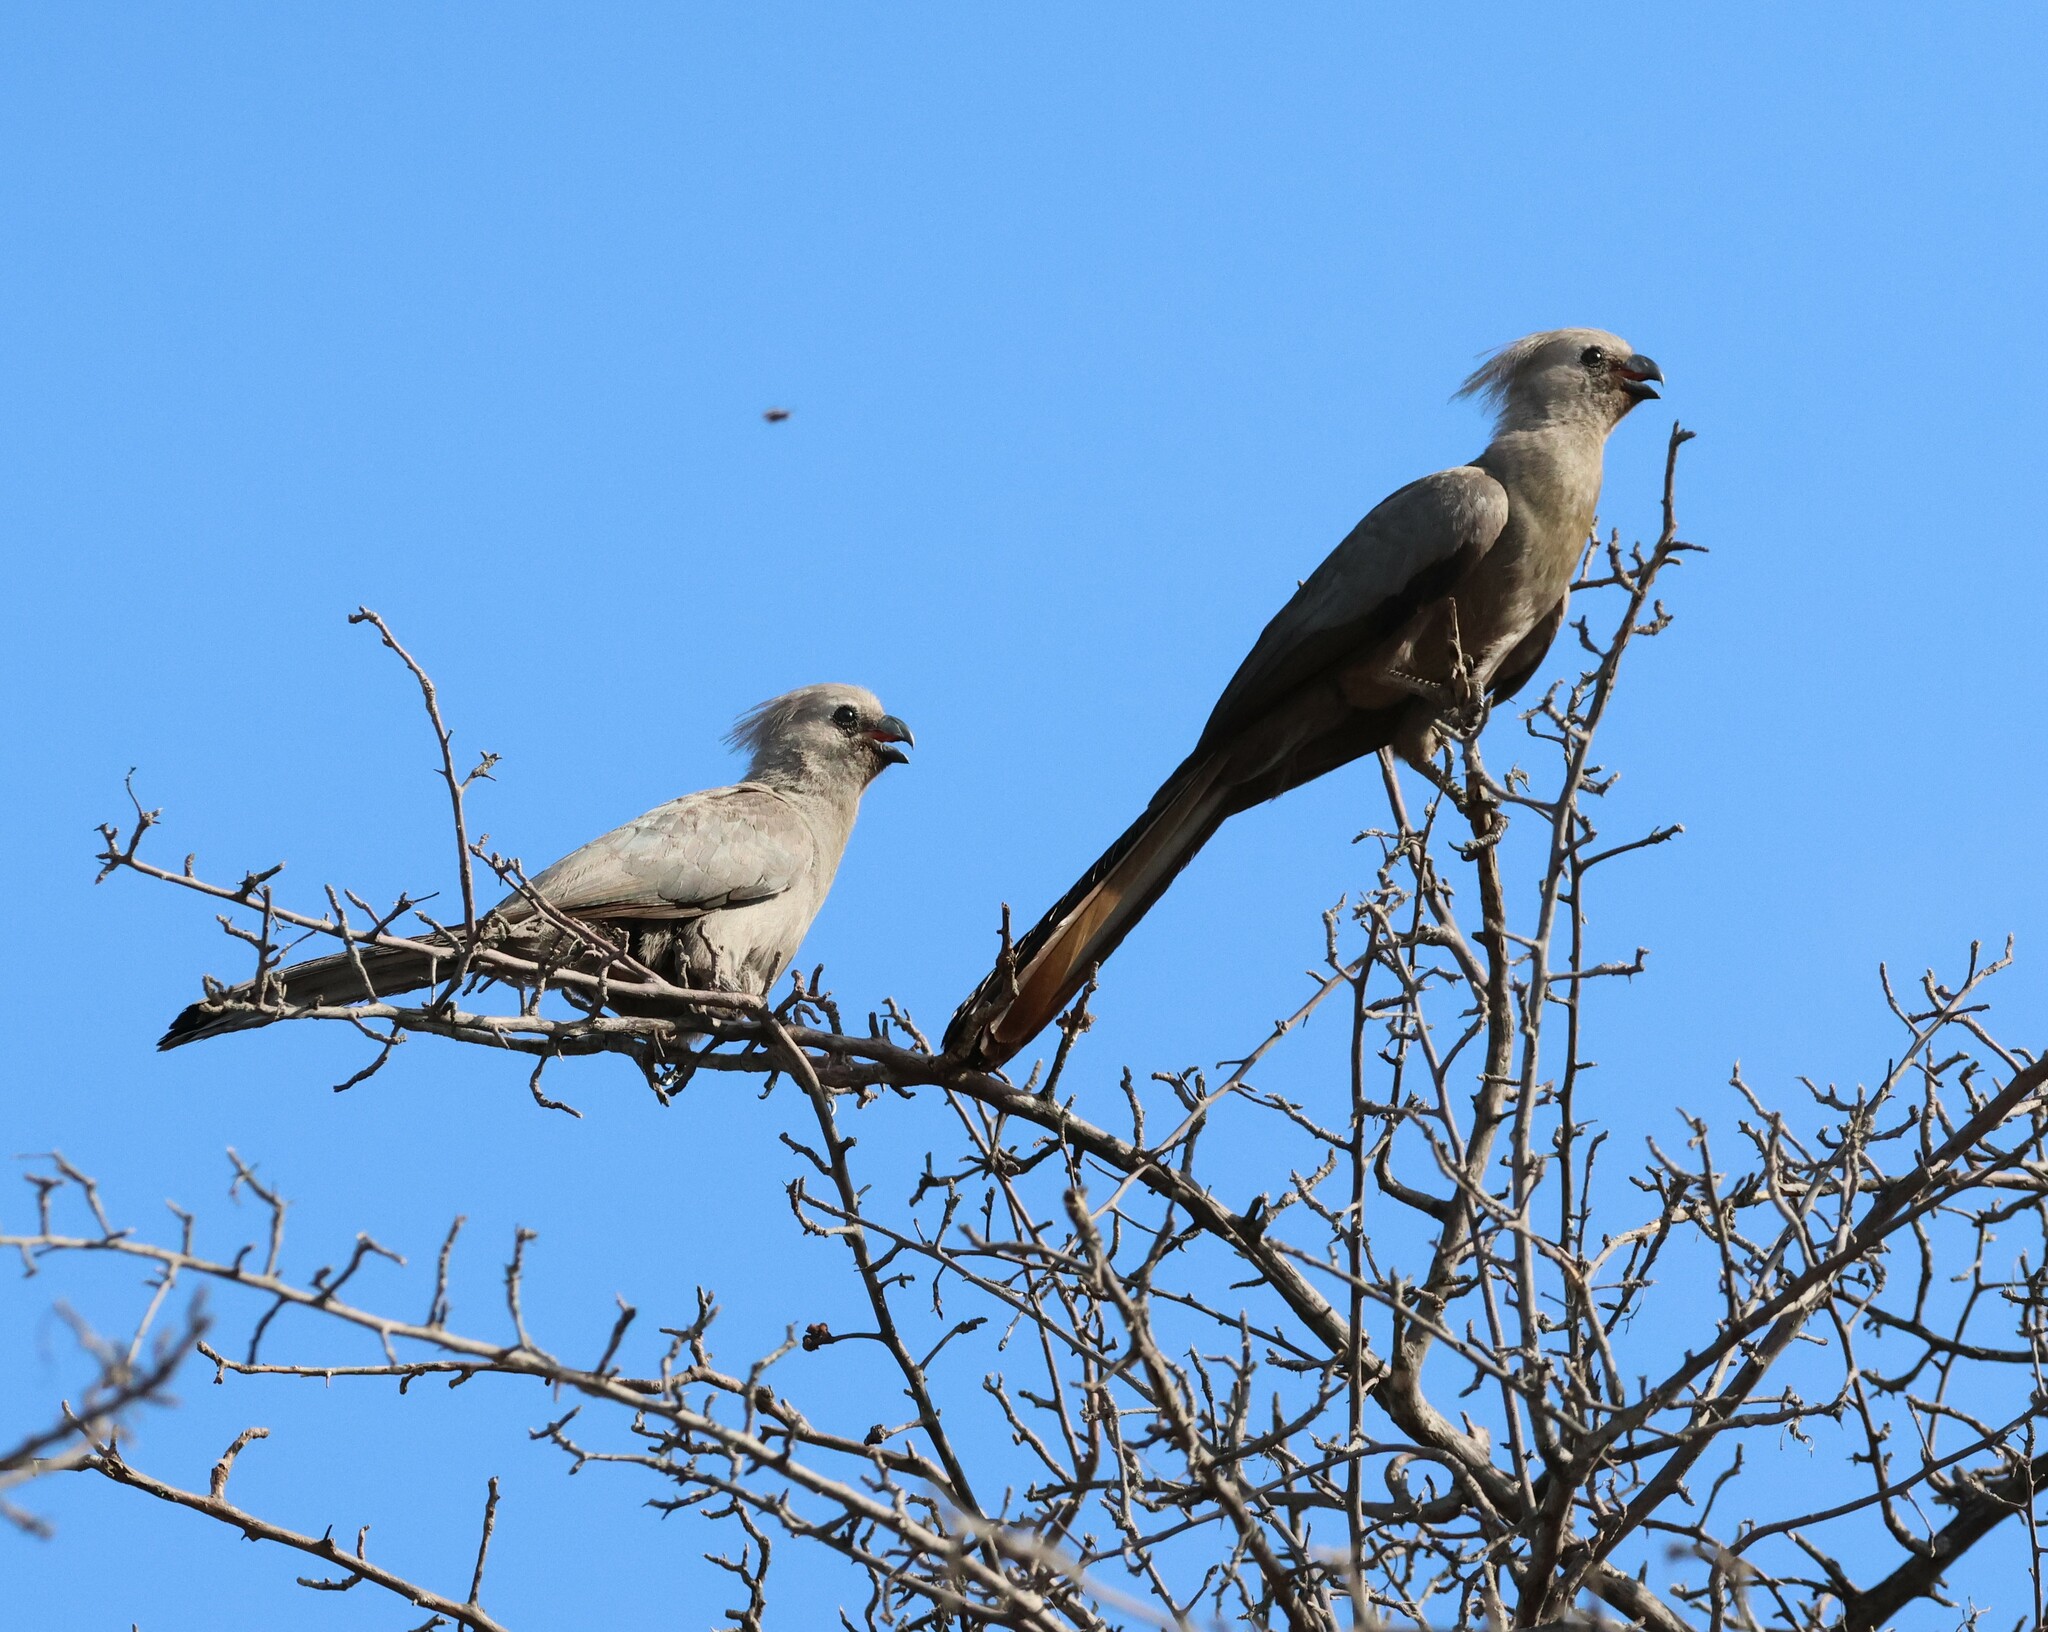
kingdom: Animalia
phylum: Chordata
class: Aves
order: Musophagiformes
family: Musophagidae
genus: Corythaixoides
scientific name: Corythaixoides concolor
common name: Grey go-away-bird
